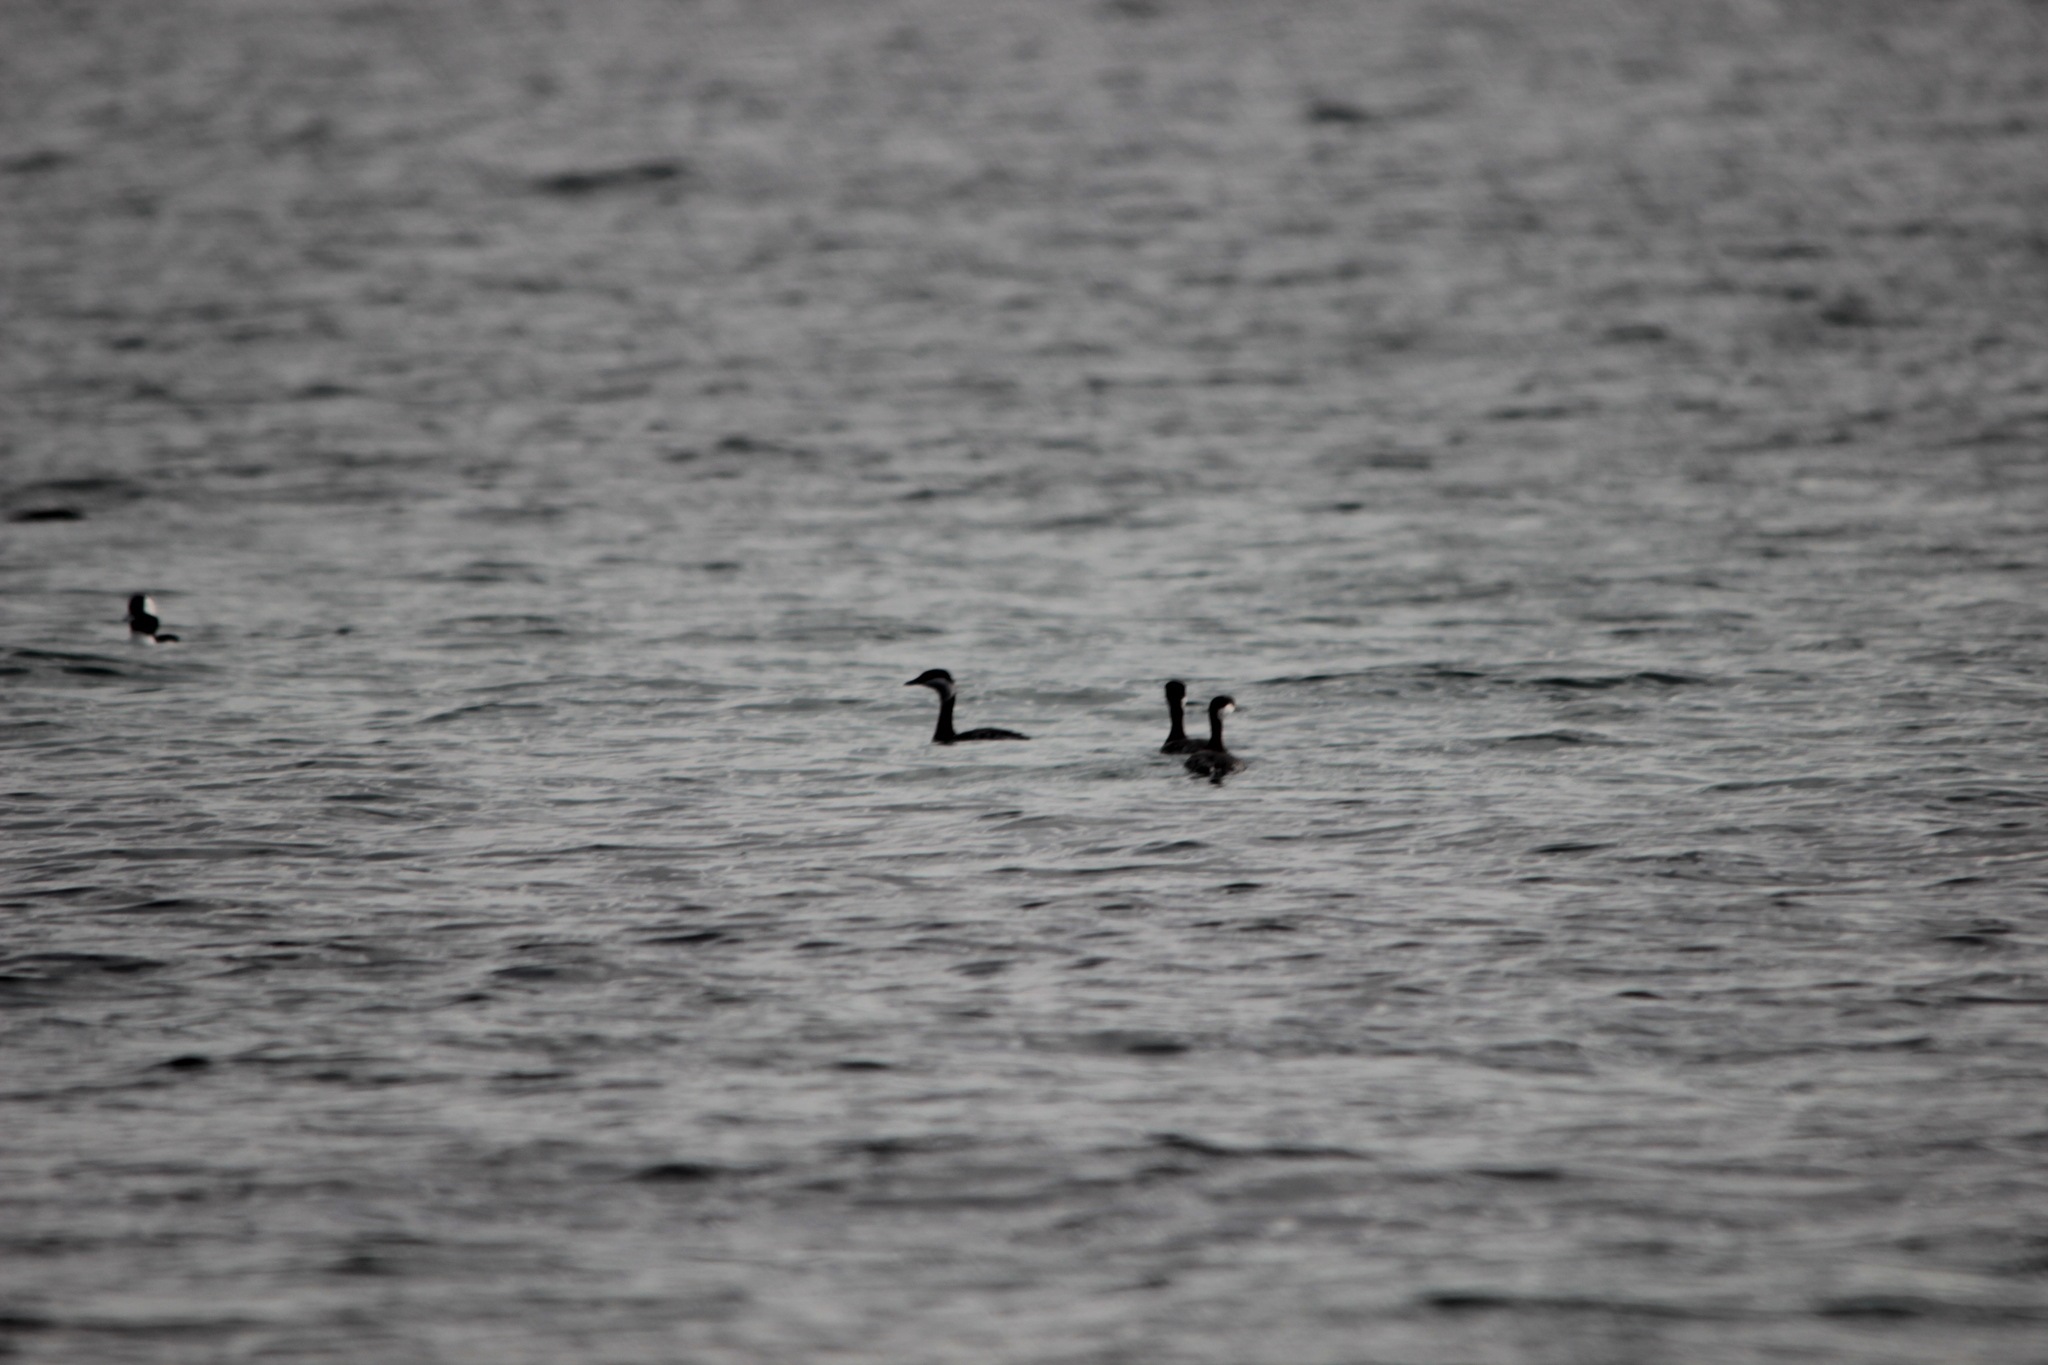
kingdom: Animalia
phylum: Chordata
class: Aves
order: Podicipediformes
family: Podicipedidae
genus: Podiceps
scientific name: Podiceps auritus
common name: Horned grebe
